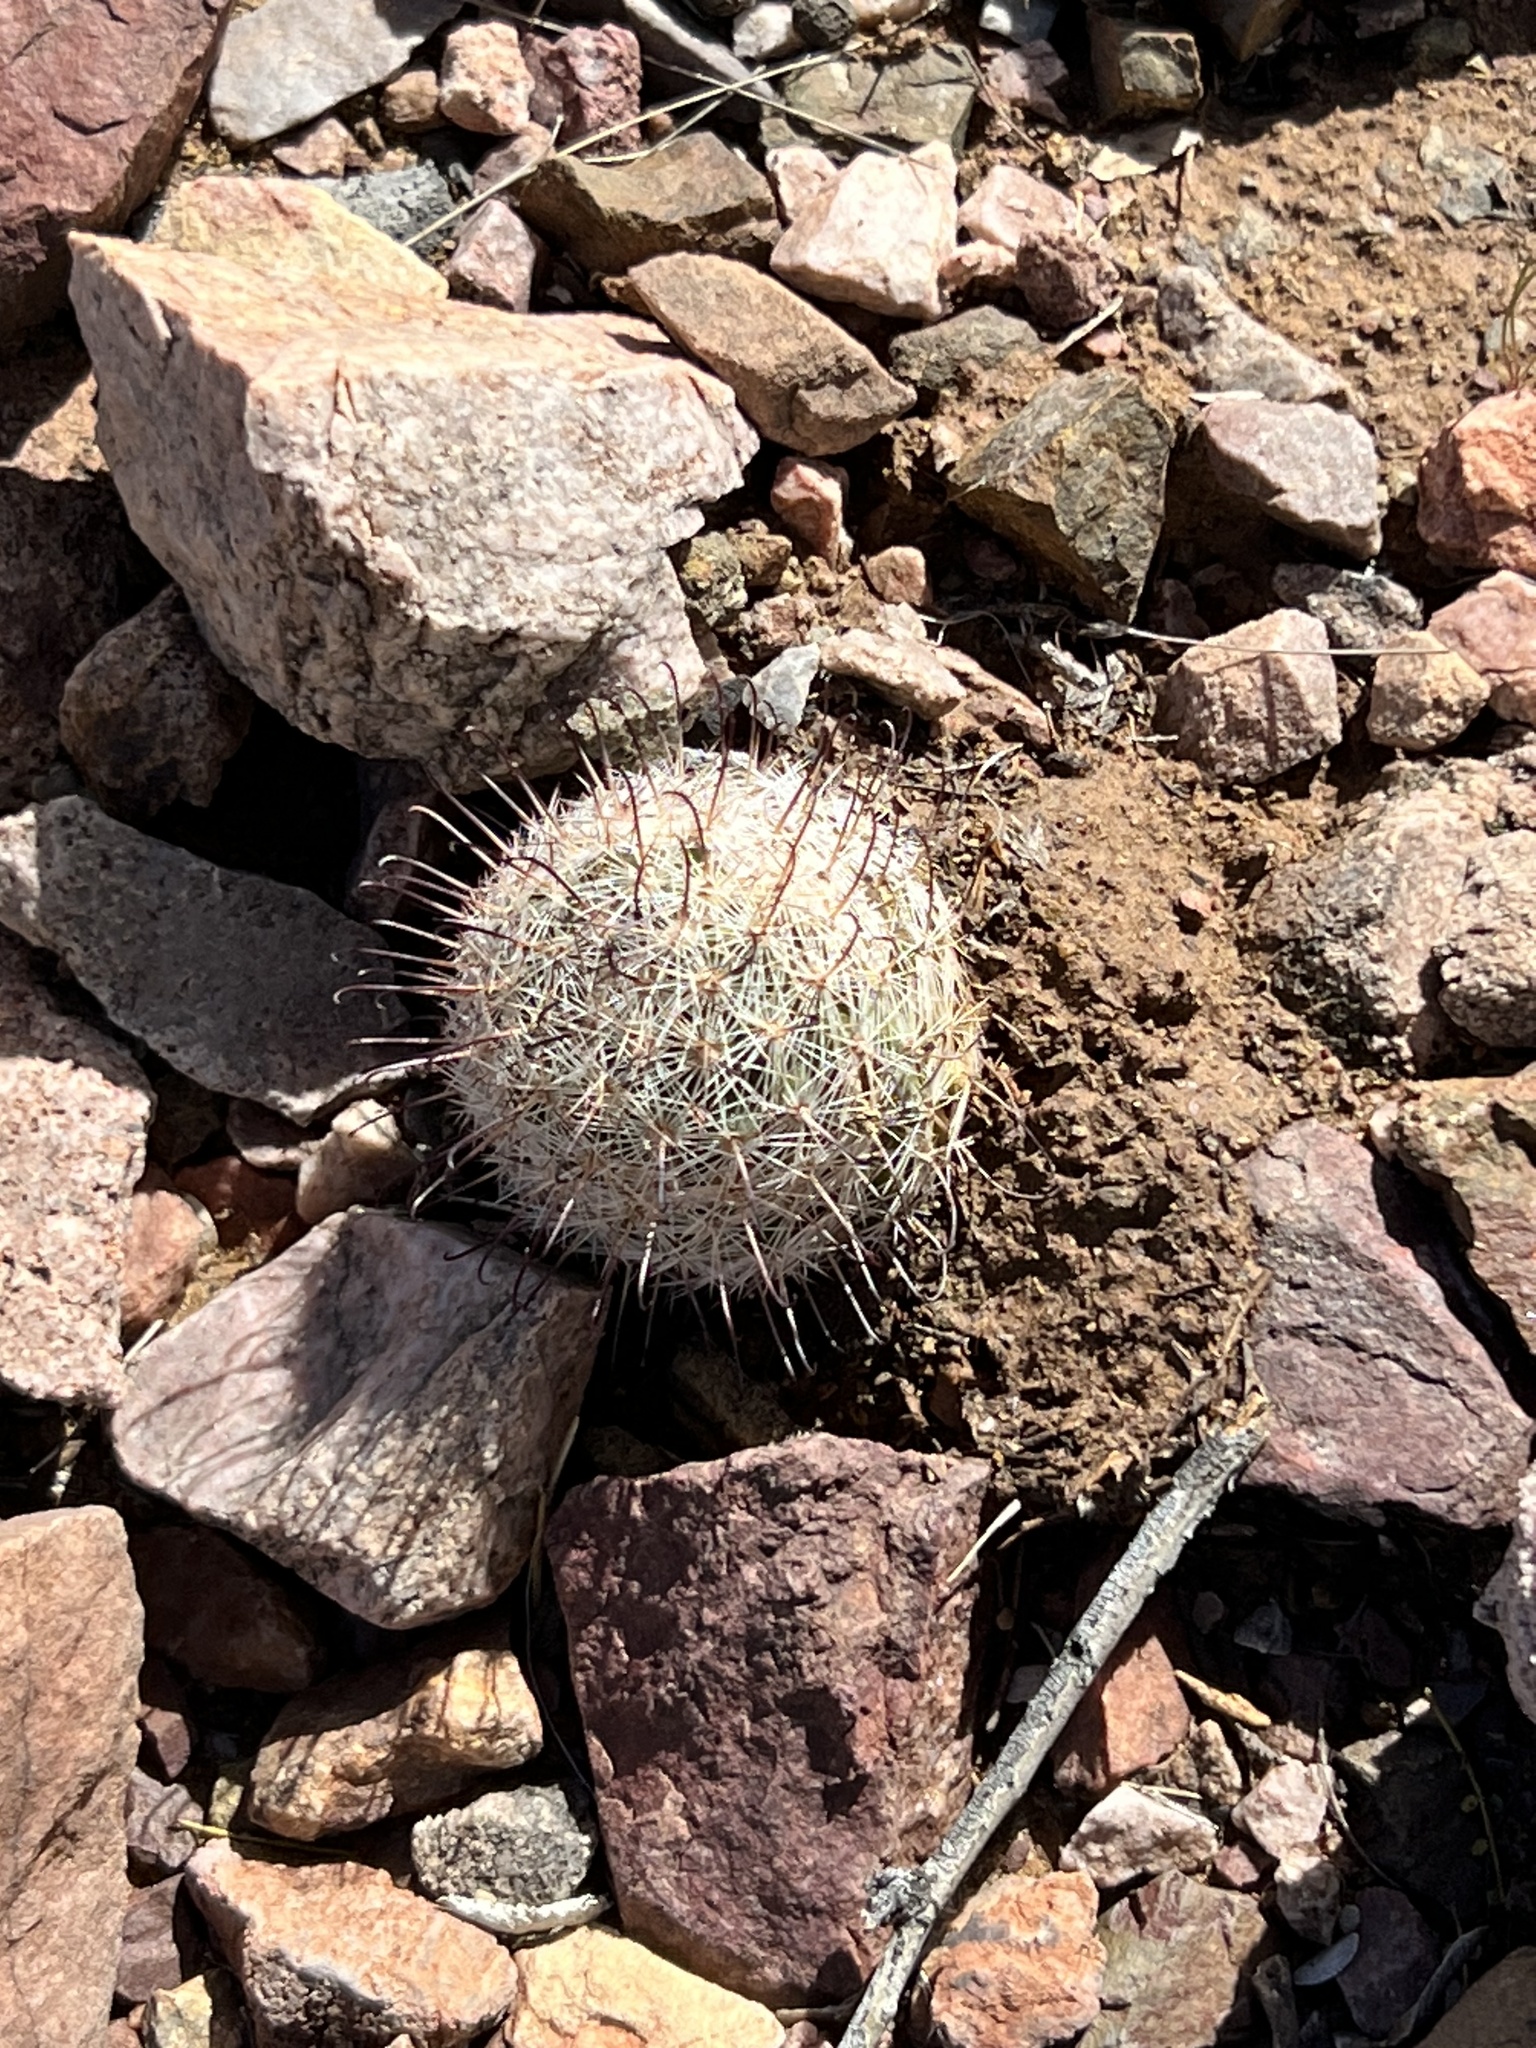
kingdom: Plantae
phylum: Tracheophyta
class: Magnoliopsida
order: Caryophyllales
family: Cactaceae
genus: Cochemiea
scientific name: Cochemiea grahamii
